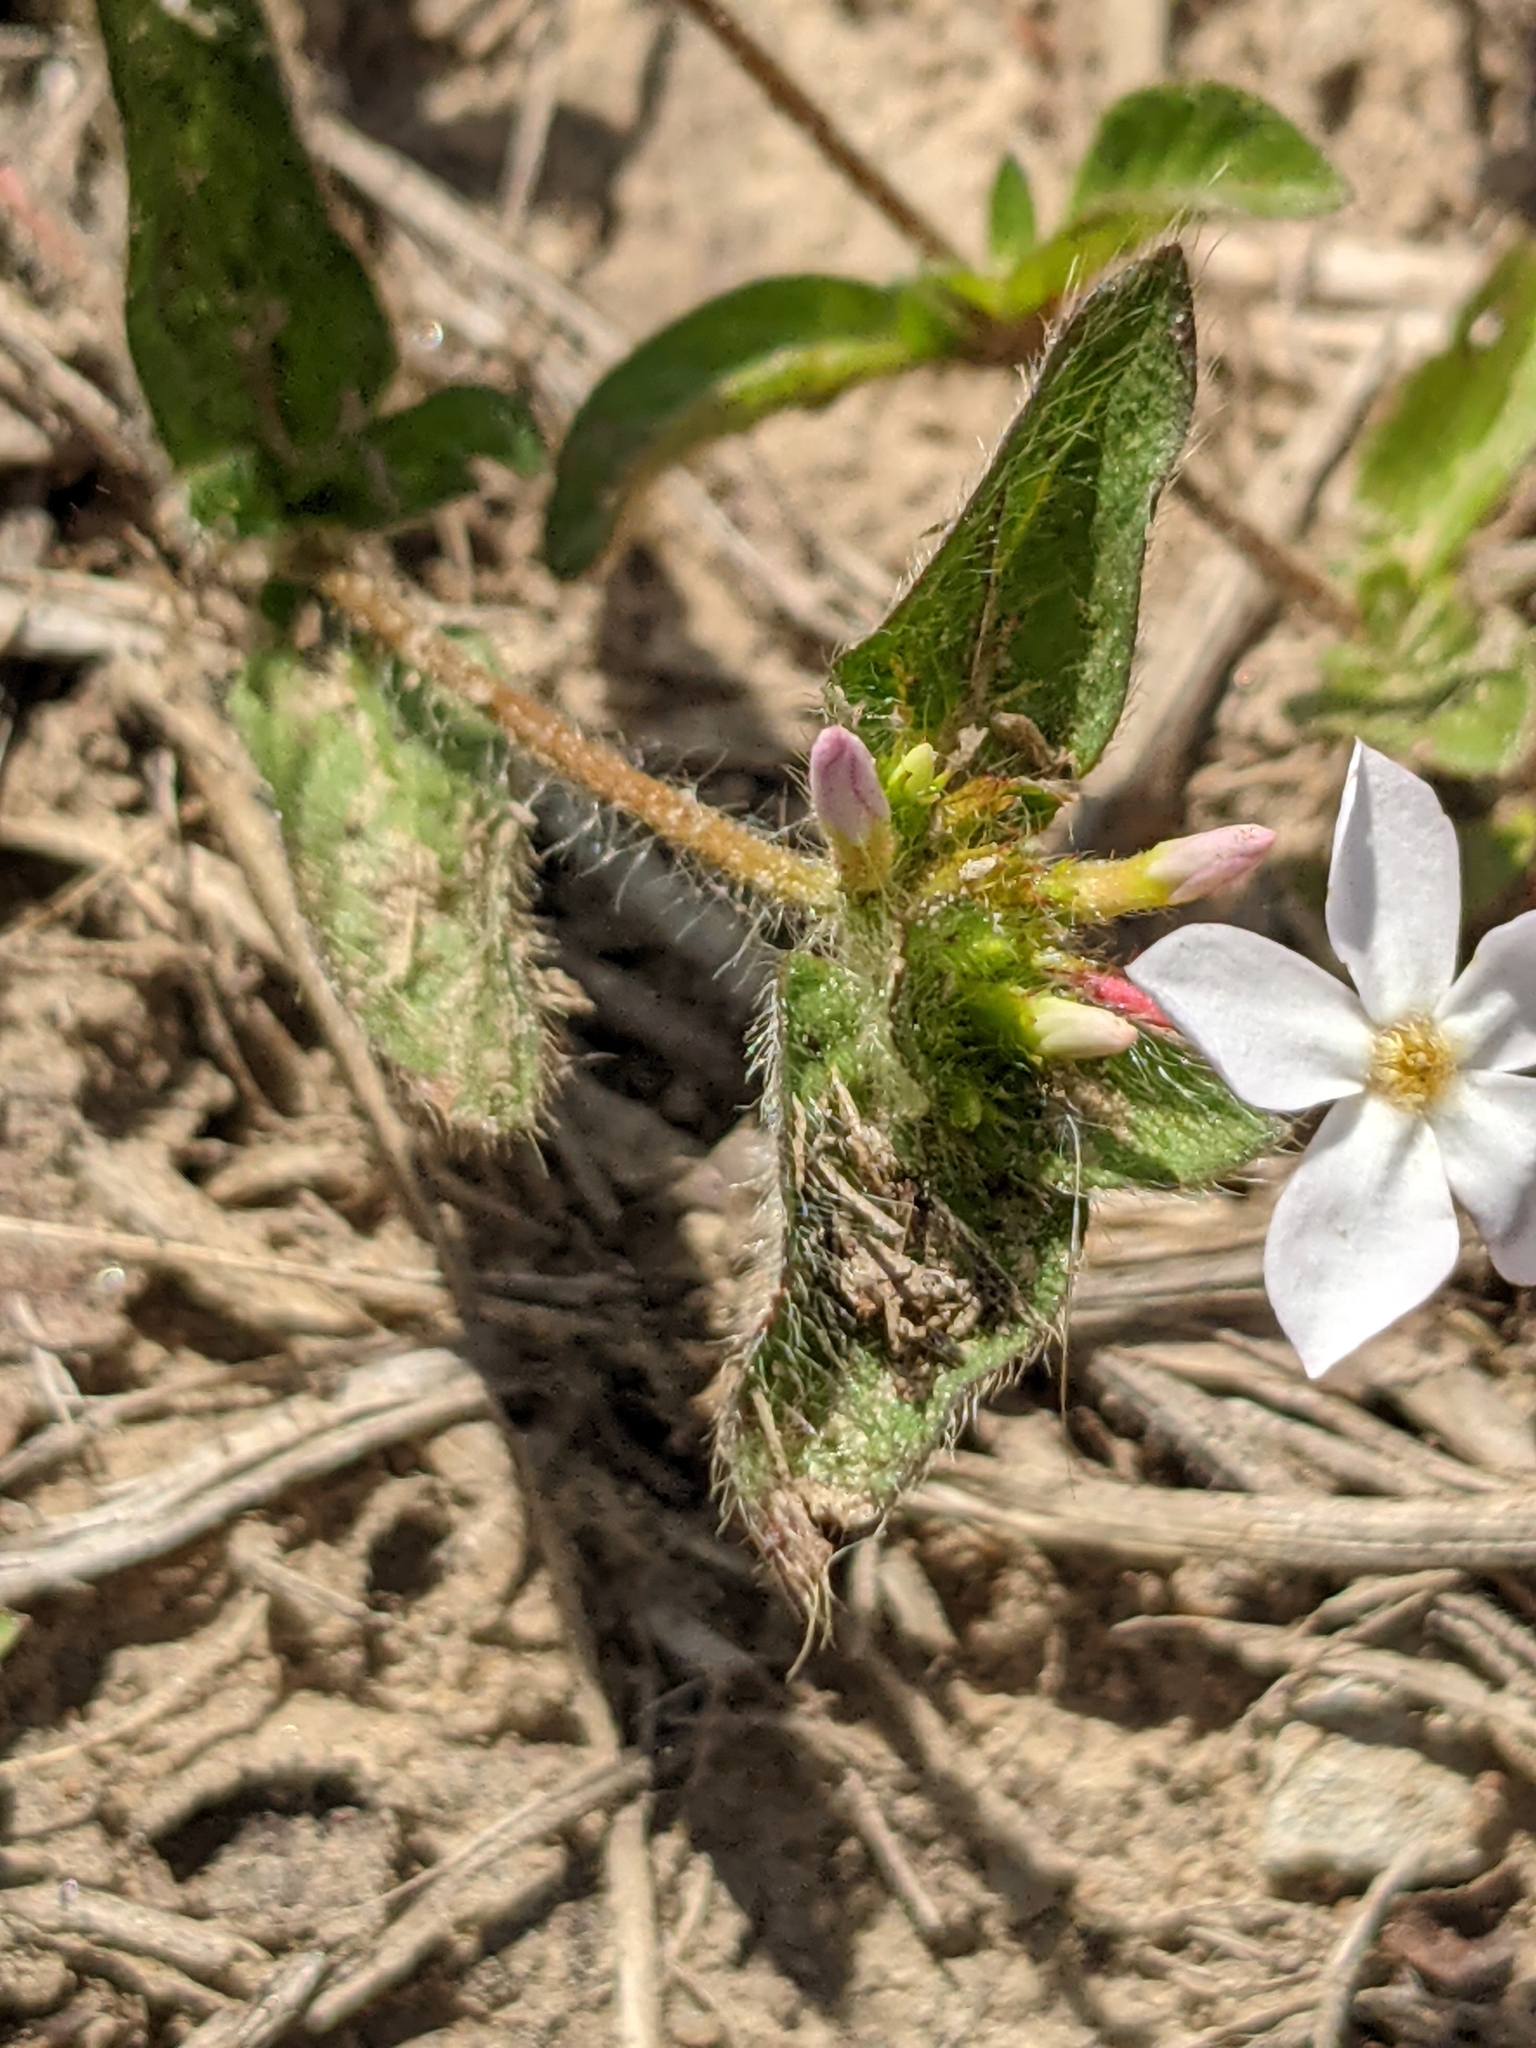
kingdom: Plantae
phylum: Tracheophyta
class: Magnoliopsida
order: Gentianales
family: Rubiaceae
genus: Sipanea
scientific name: Sipanea pratensis
